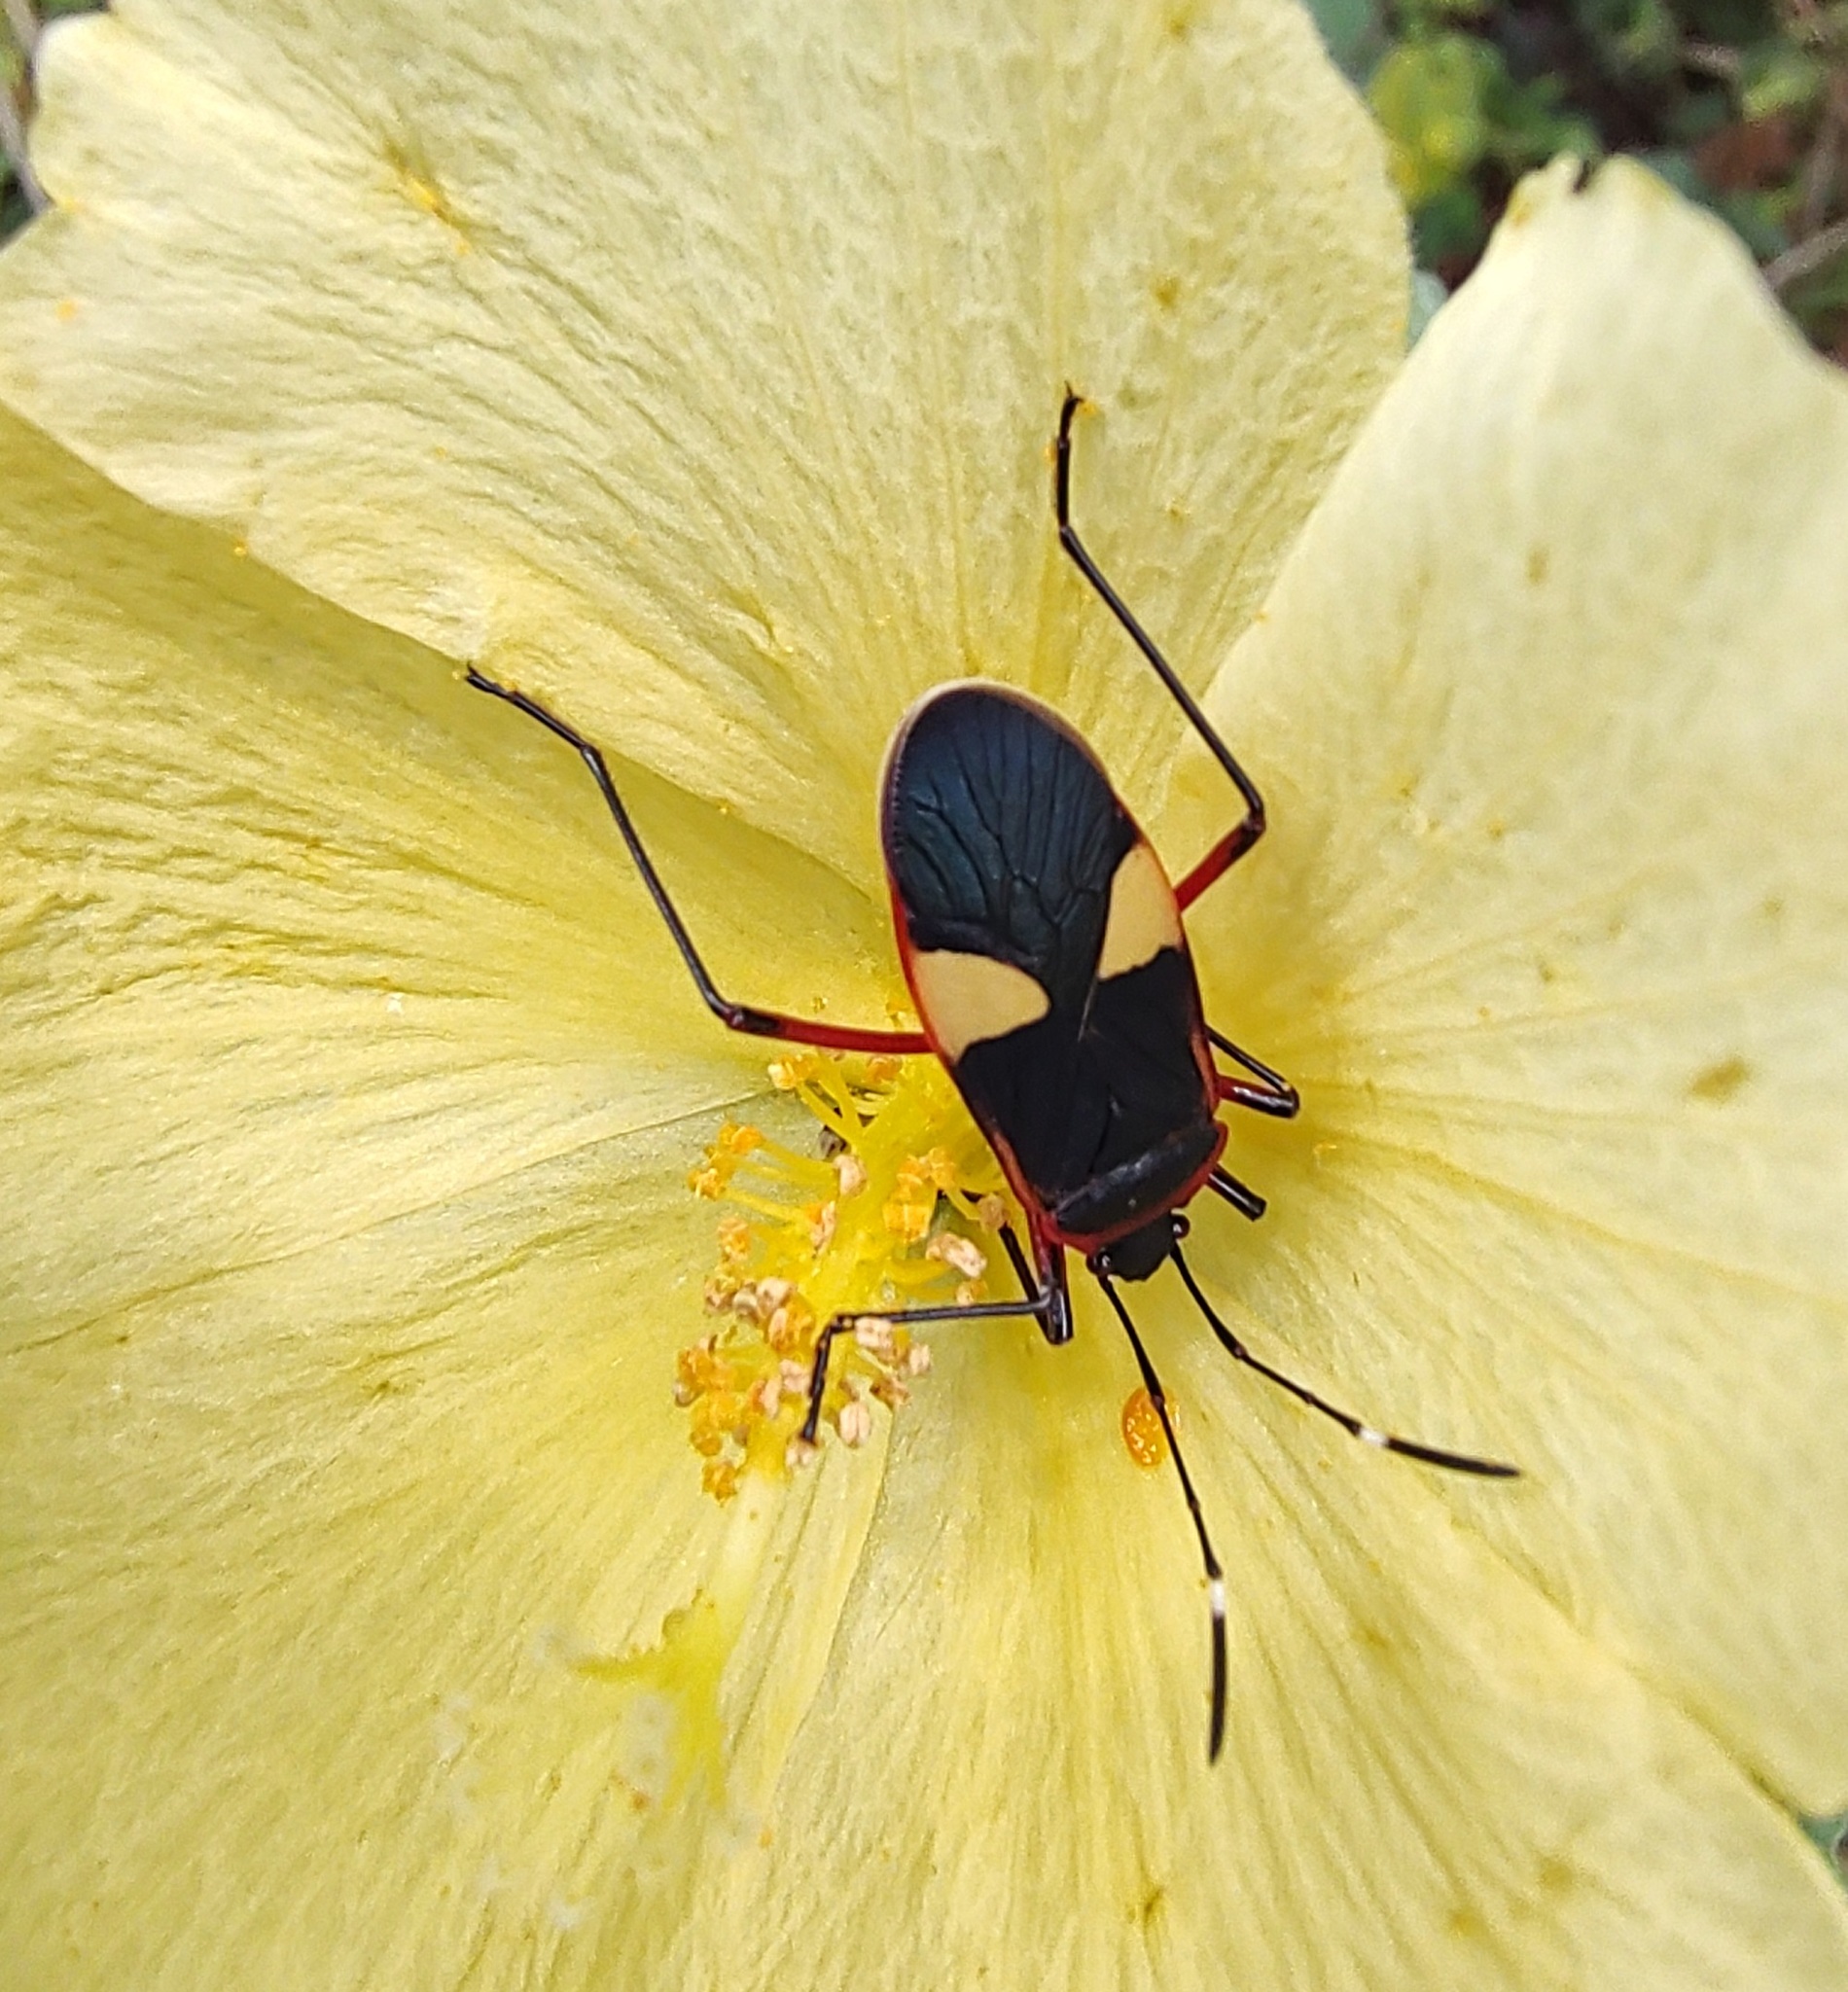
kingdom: Animalia
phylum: Arthropoda
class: Insecta
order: Hemiptera
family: Pyrrhocoridae
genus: Dysdercus
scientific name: Dysdercus albofasciatus
